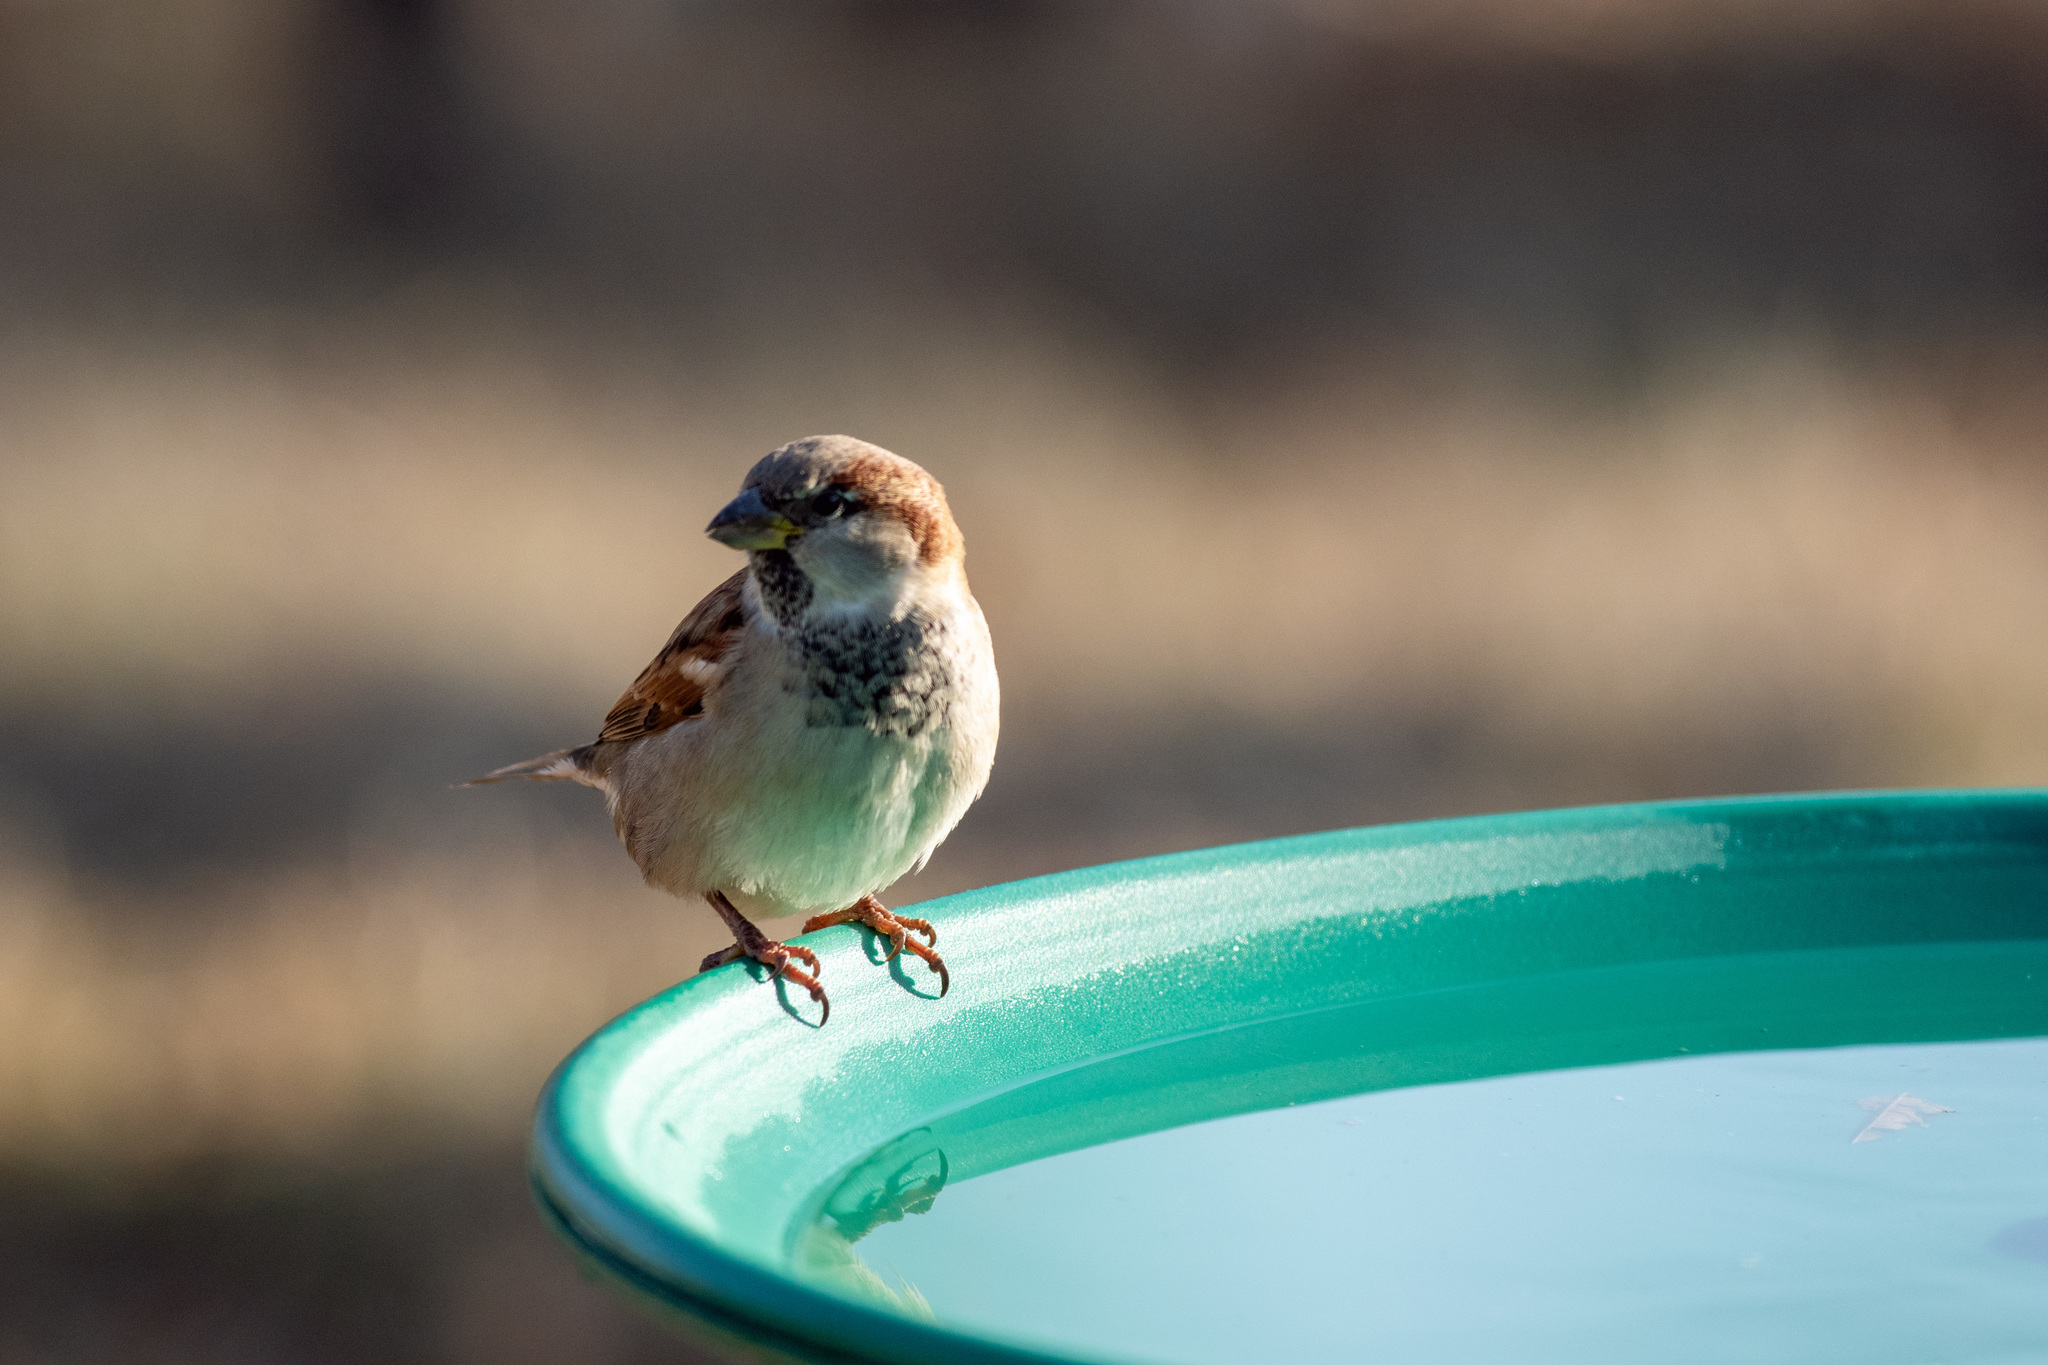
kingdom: Animalia
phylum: Chordata
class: Aves
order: Passeriformes
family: Passeridae
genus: Passer
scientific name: Passer domesticus
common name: House sparrow
